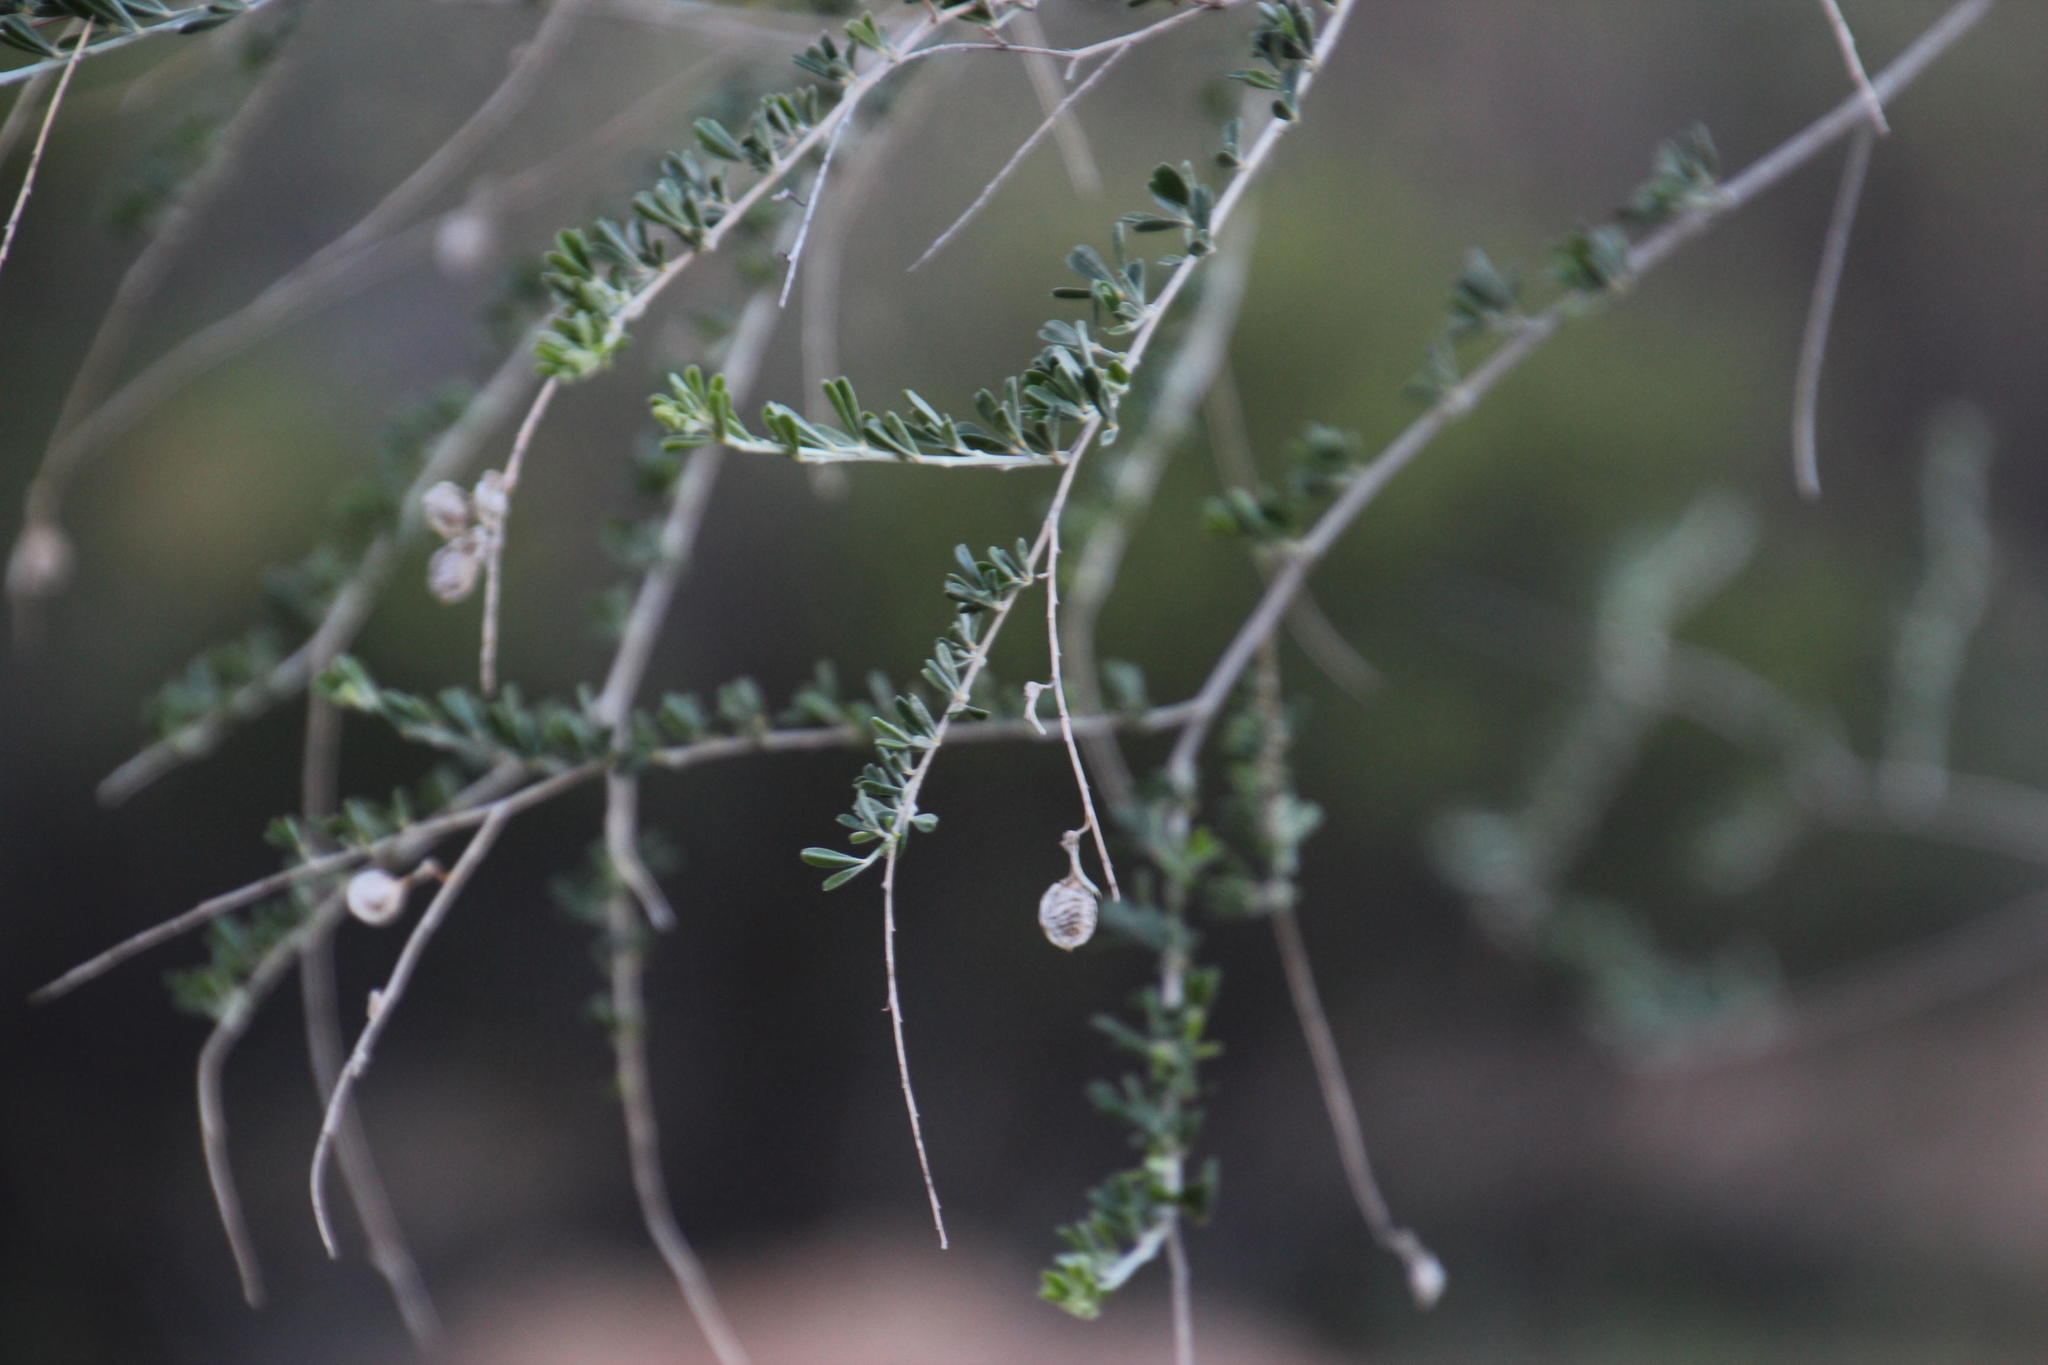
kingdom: Plantae
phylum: Tracheophyta
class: Magnoliopsida
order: Fabales
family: Fabaceae
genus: Wiborgia
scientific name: Wiborgia obcordata
